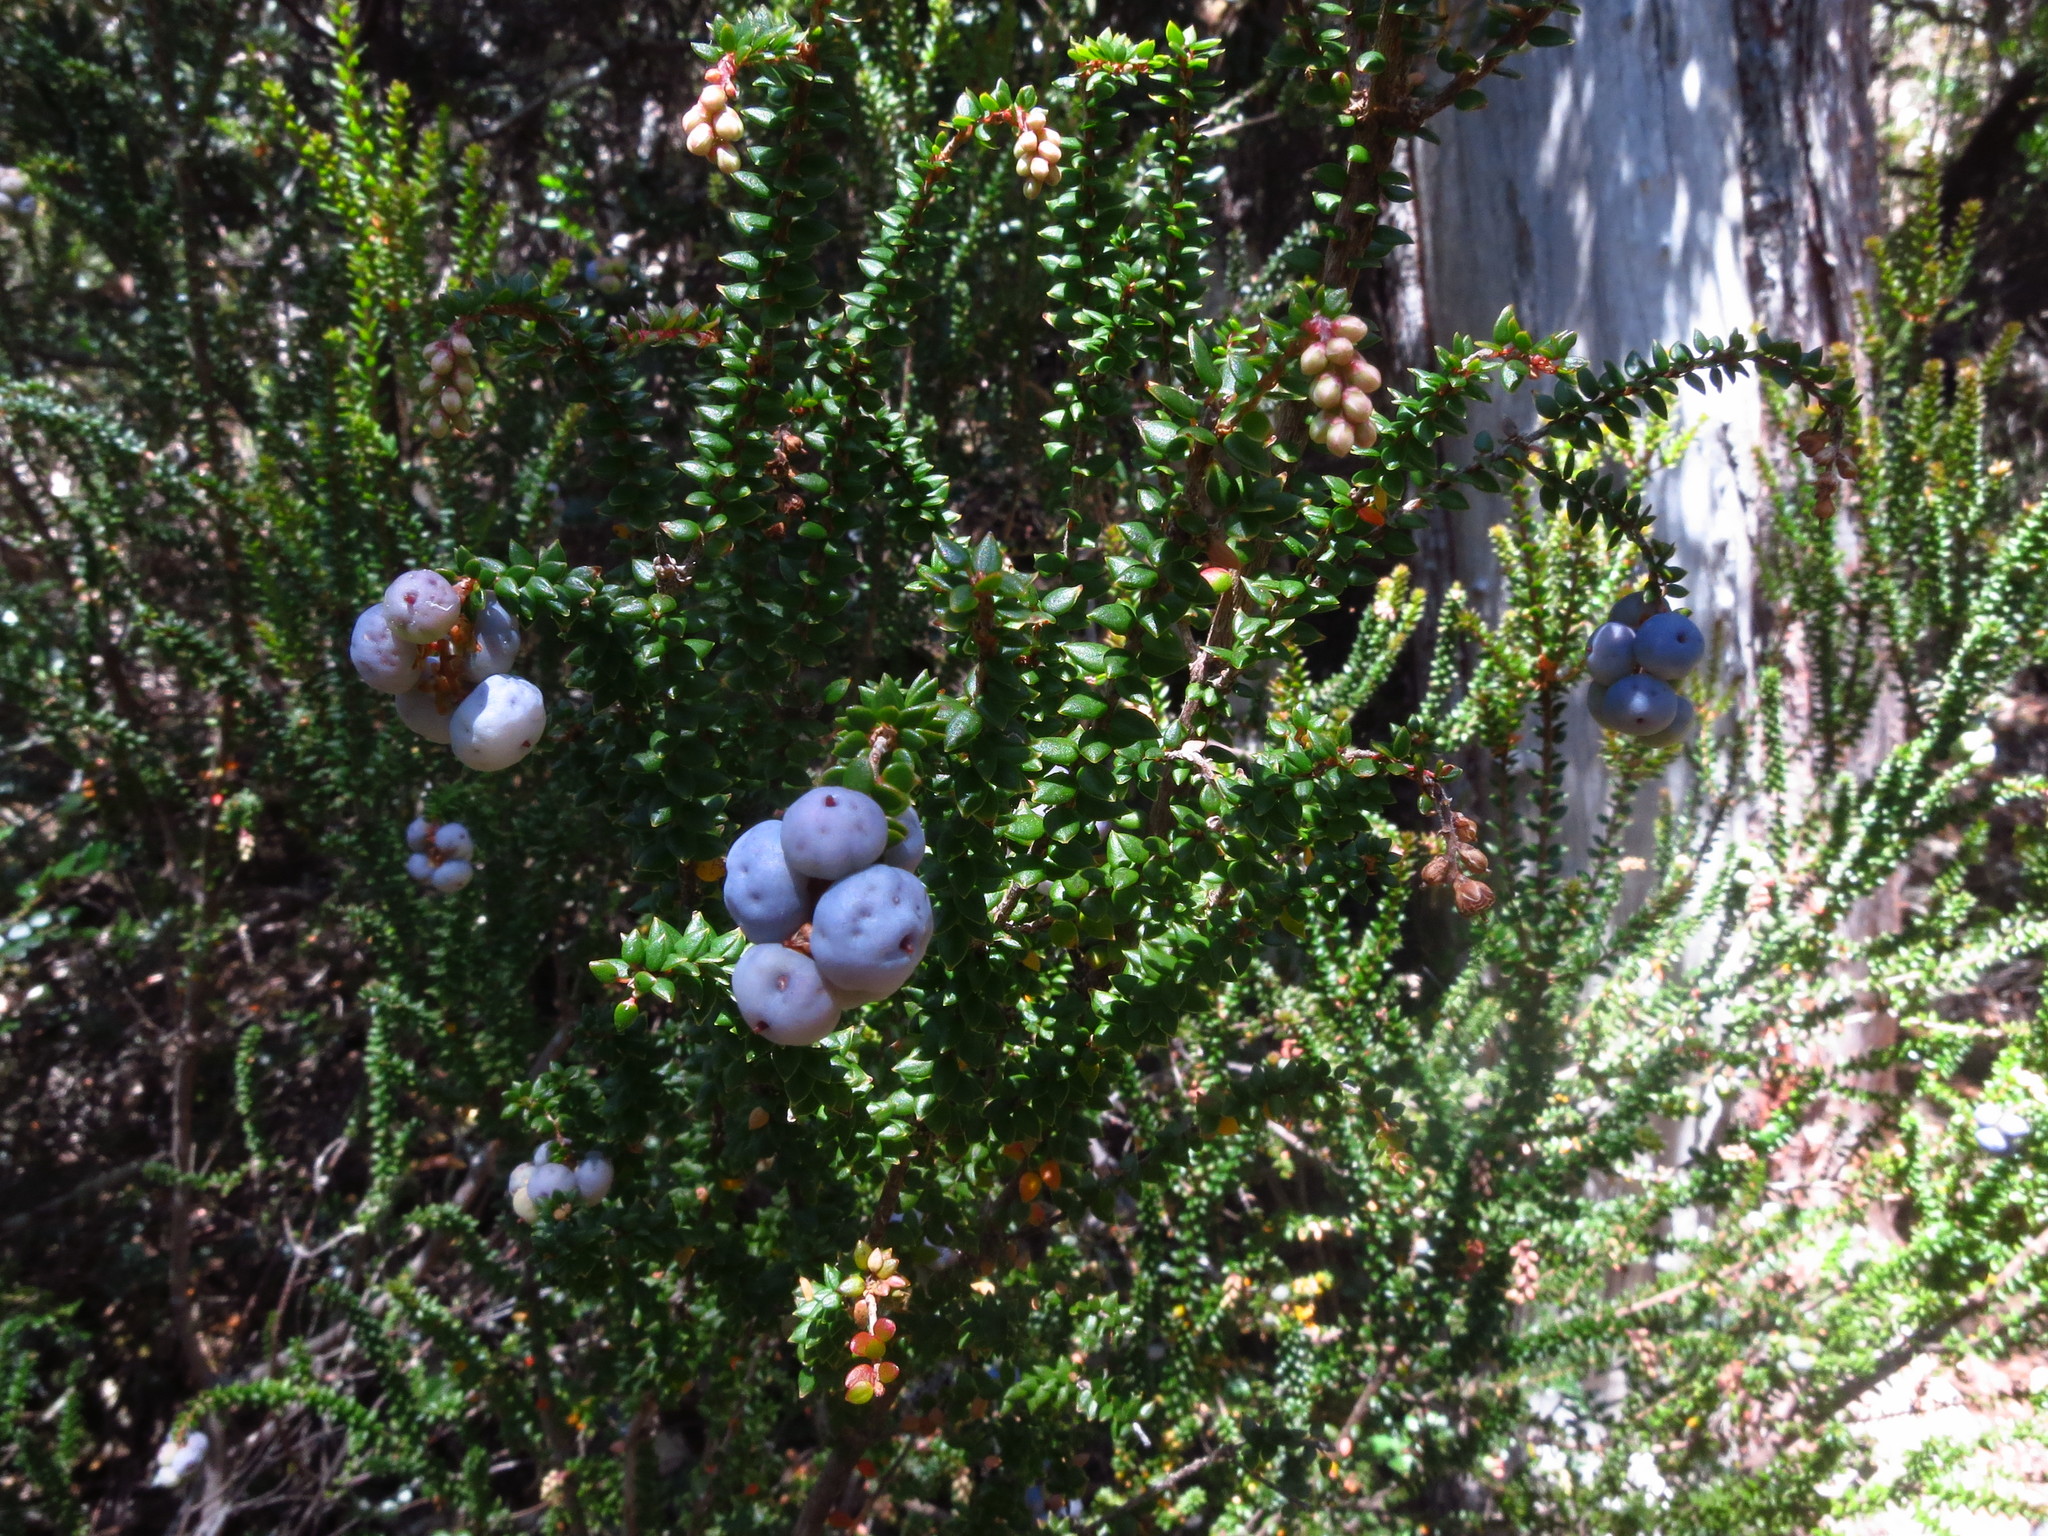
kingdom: Plantae
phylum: Tracheophyta
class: Magnoliopsida
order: Ericales
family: Ericaceae
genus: Trochocarpa
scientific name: Trochocarpa thymifolia
